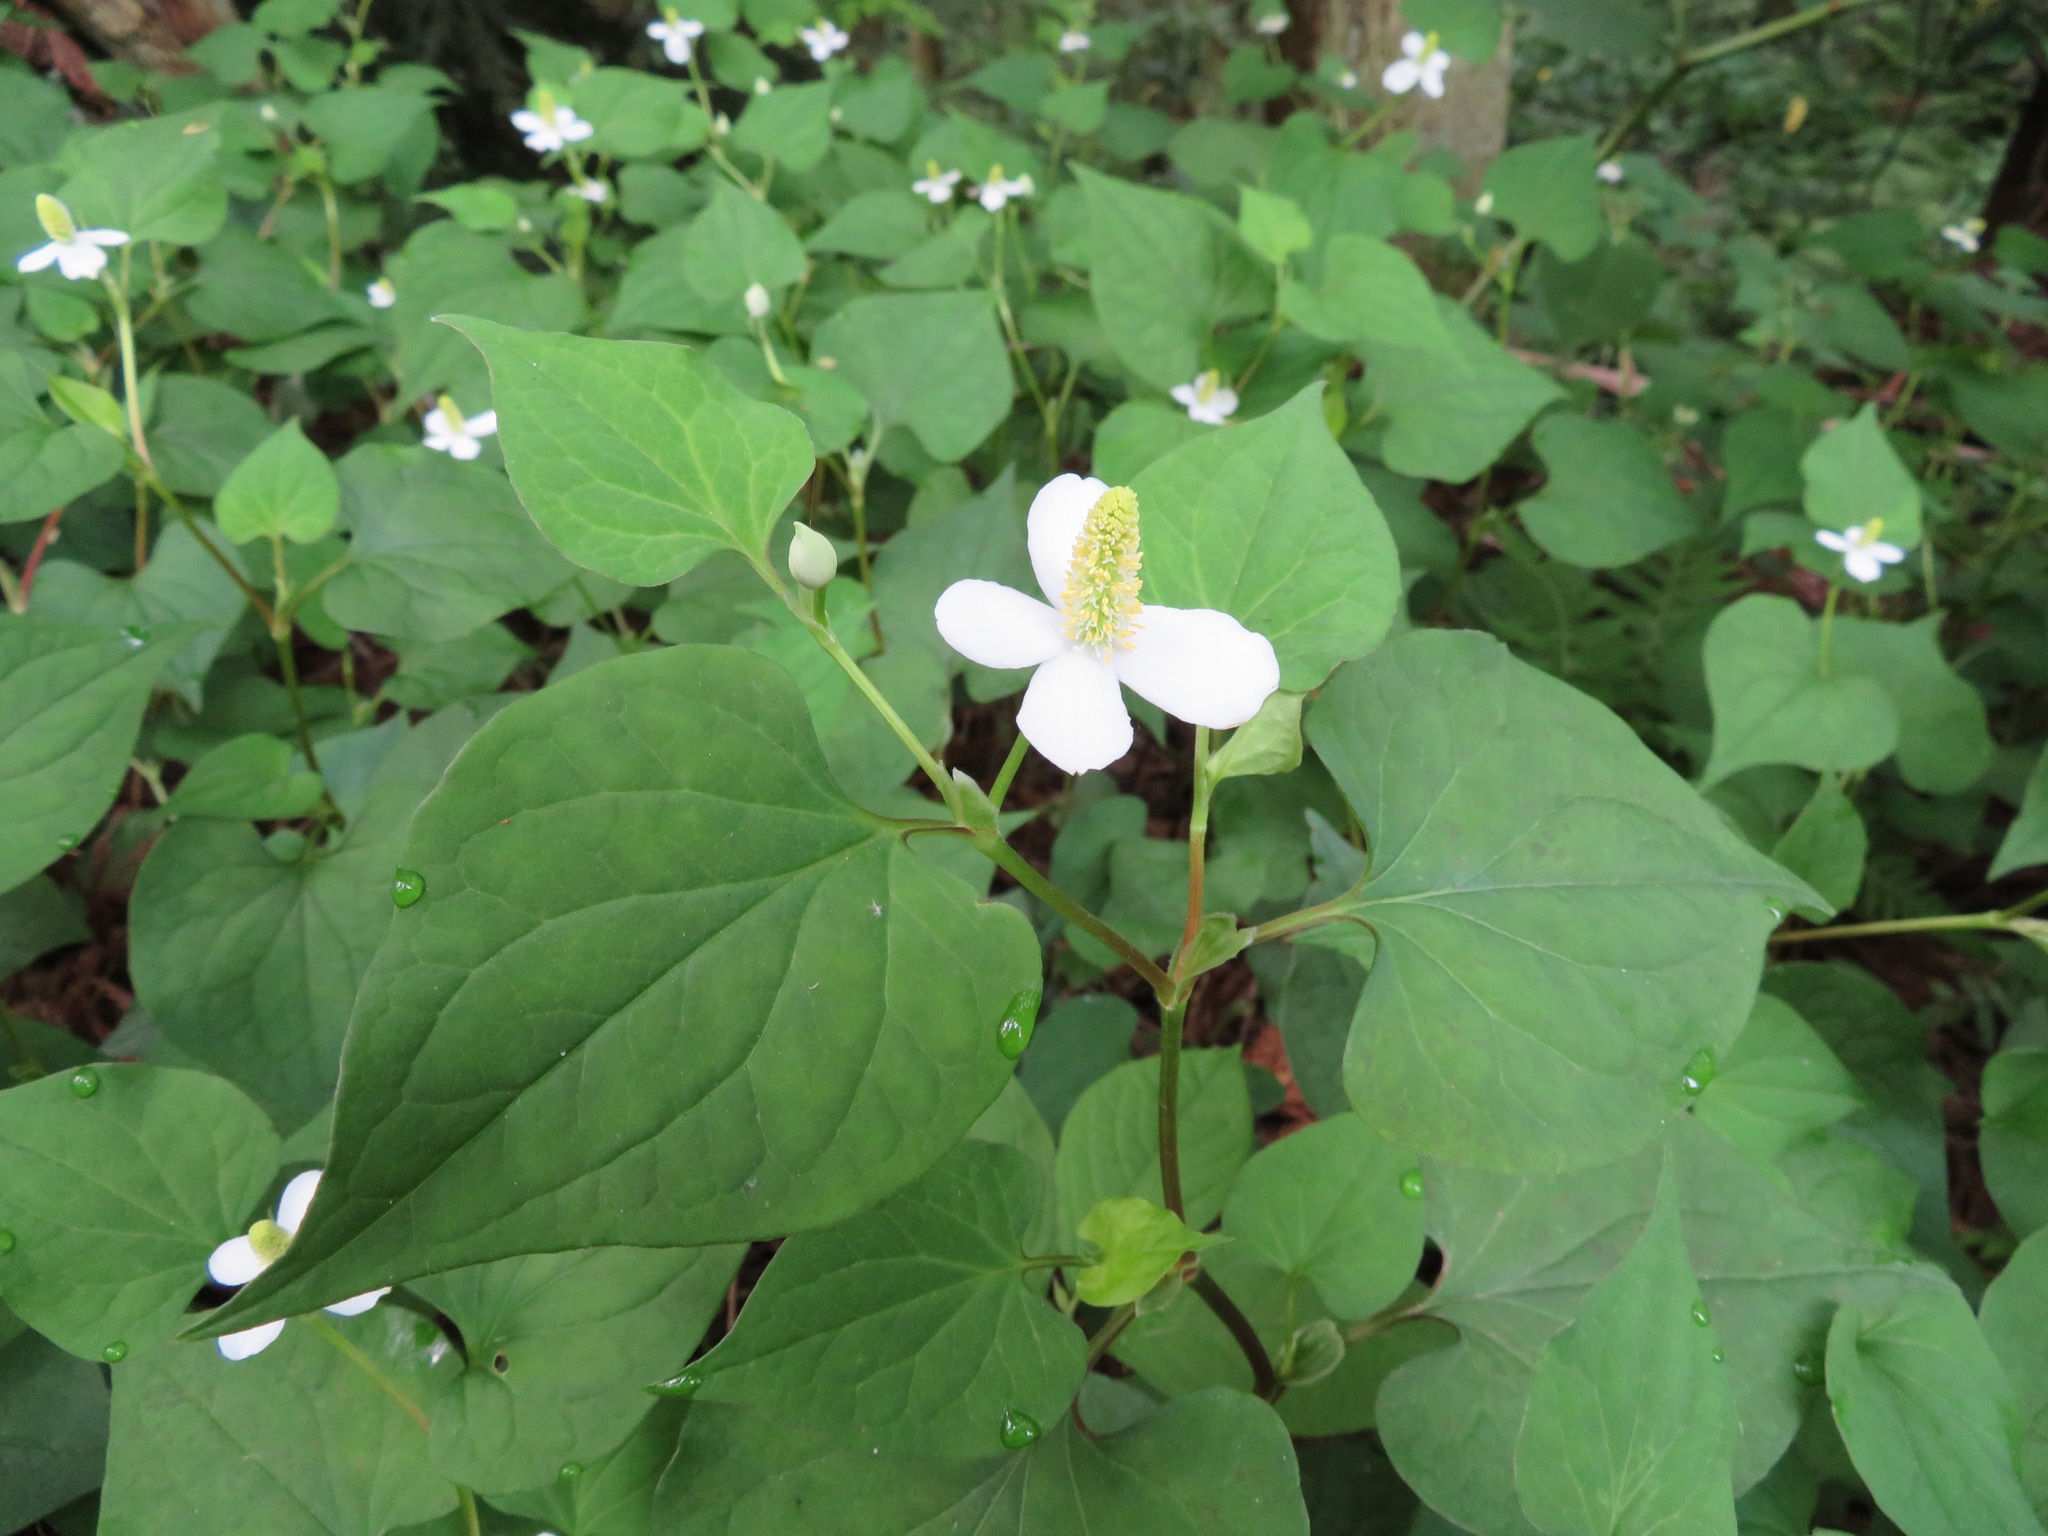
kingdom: Plantae
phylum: Tracheophyta
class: Magnoliopsida
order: Piperales
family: Saururaceae
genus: Houttuynia
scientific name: Houttuynia cordata
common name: Chameleon
